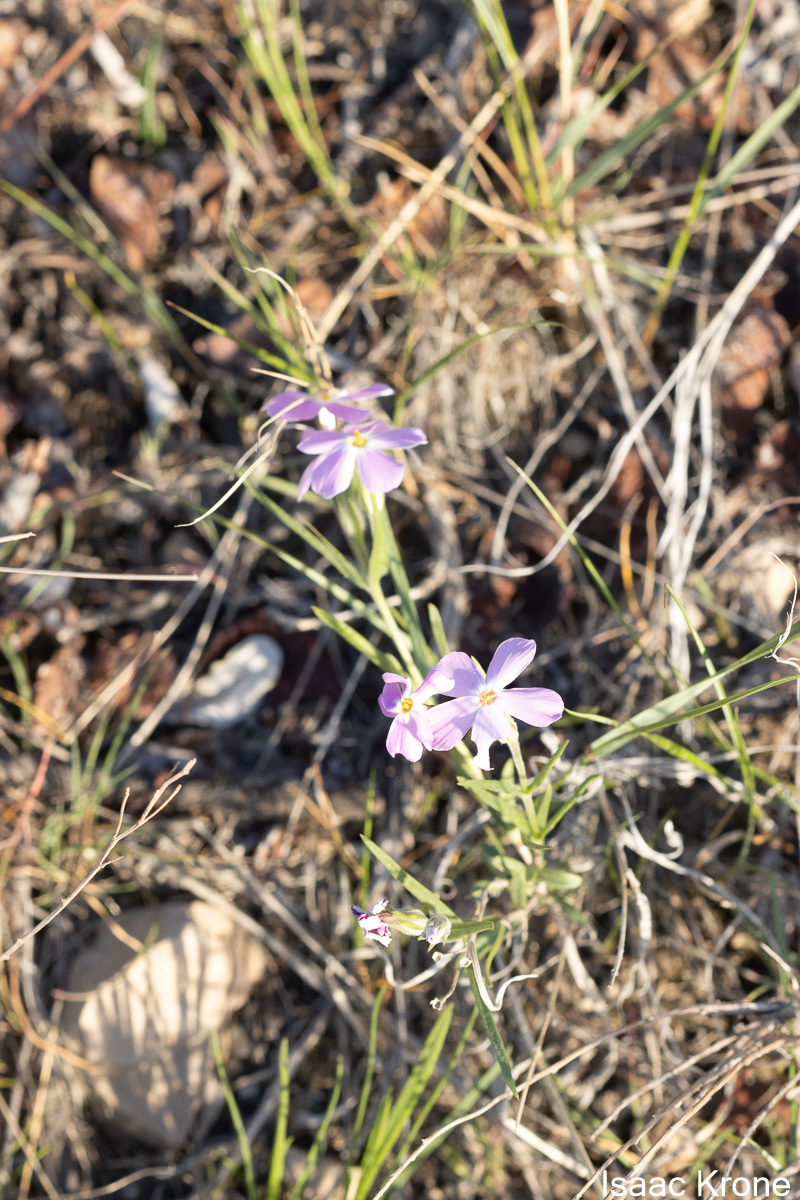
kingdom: Plantae
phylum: Tracheophyta
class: Magnoliopsida
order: Ericales
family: Polemoniaceae
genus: Phlox
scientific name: Phlox longifolia
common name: Longleaf phlox
